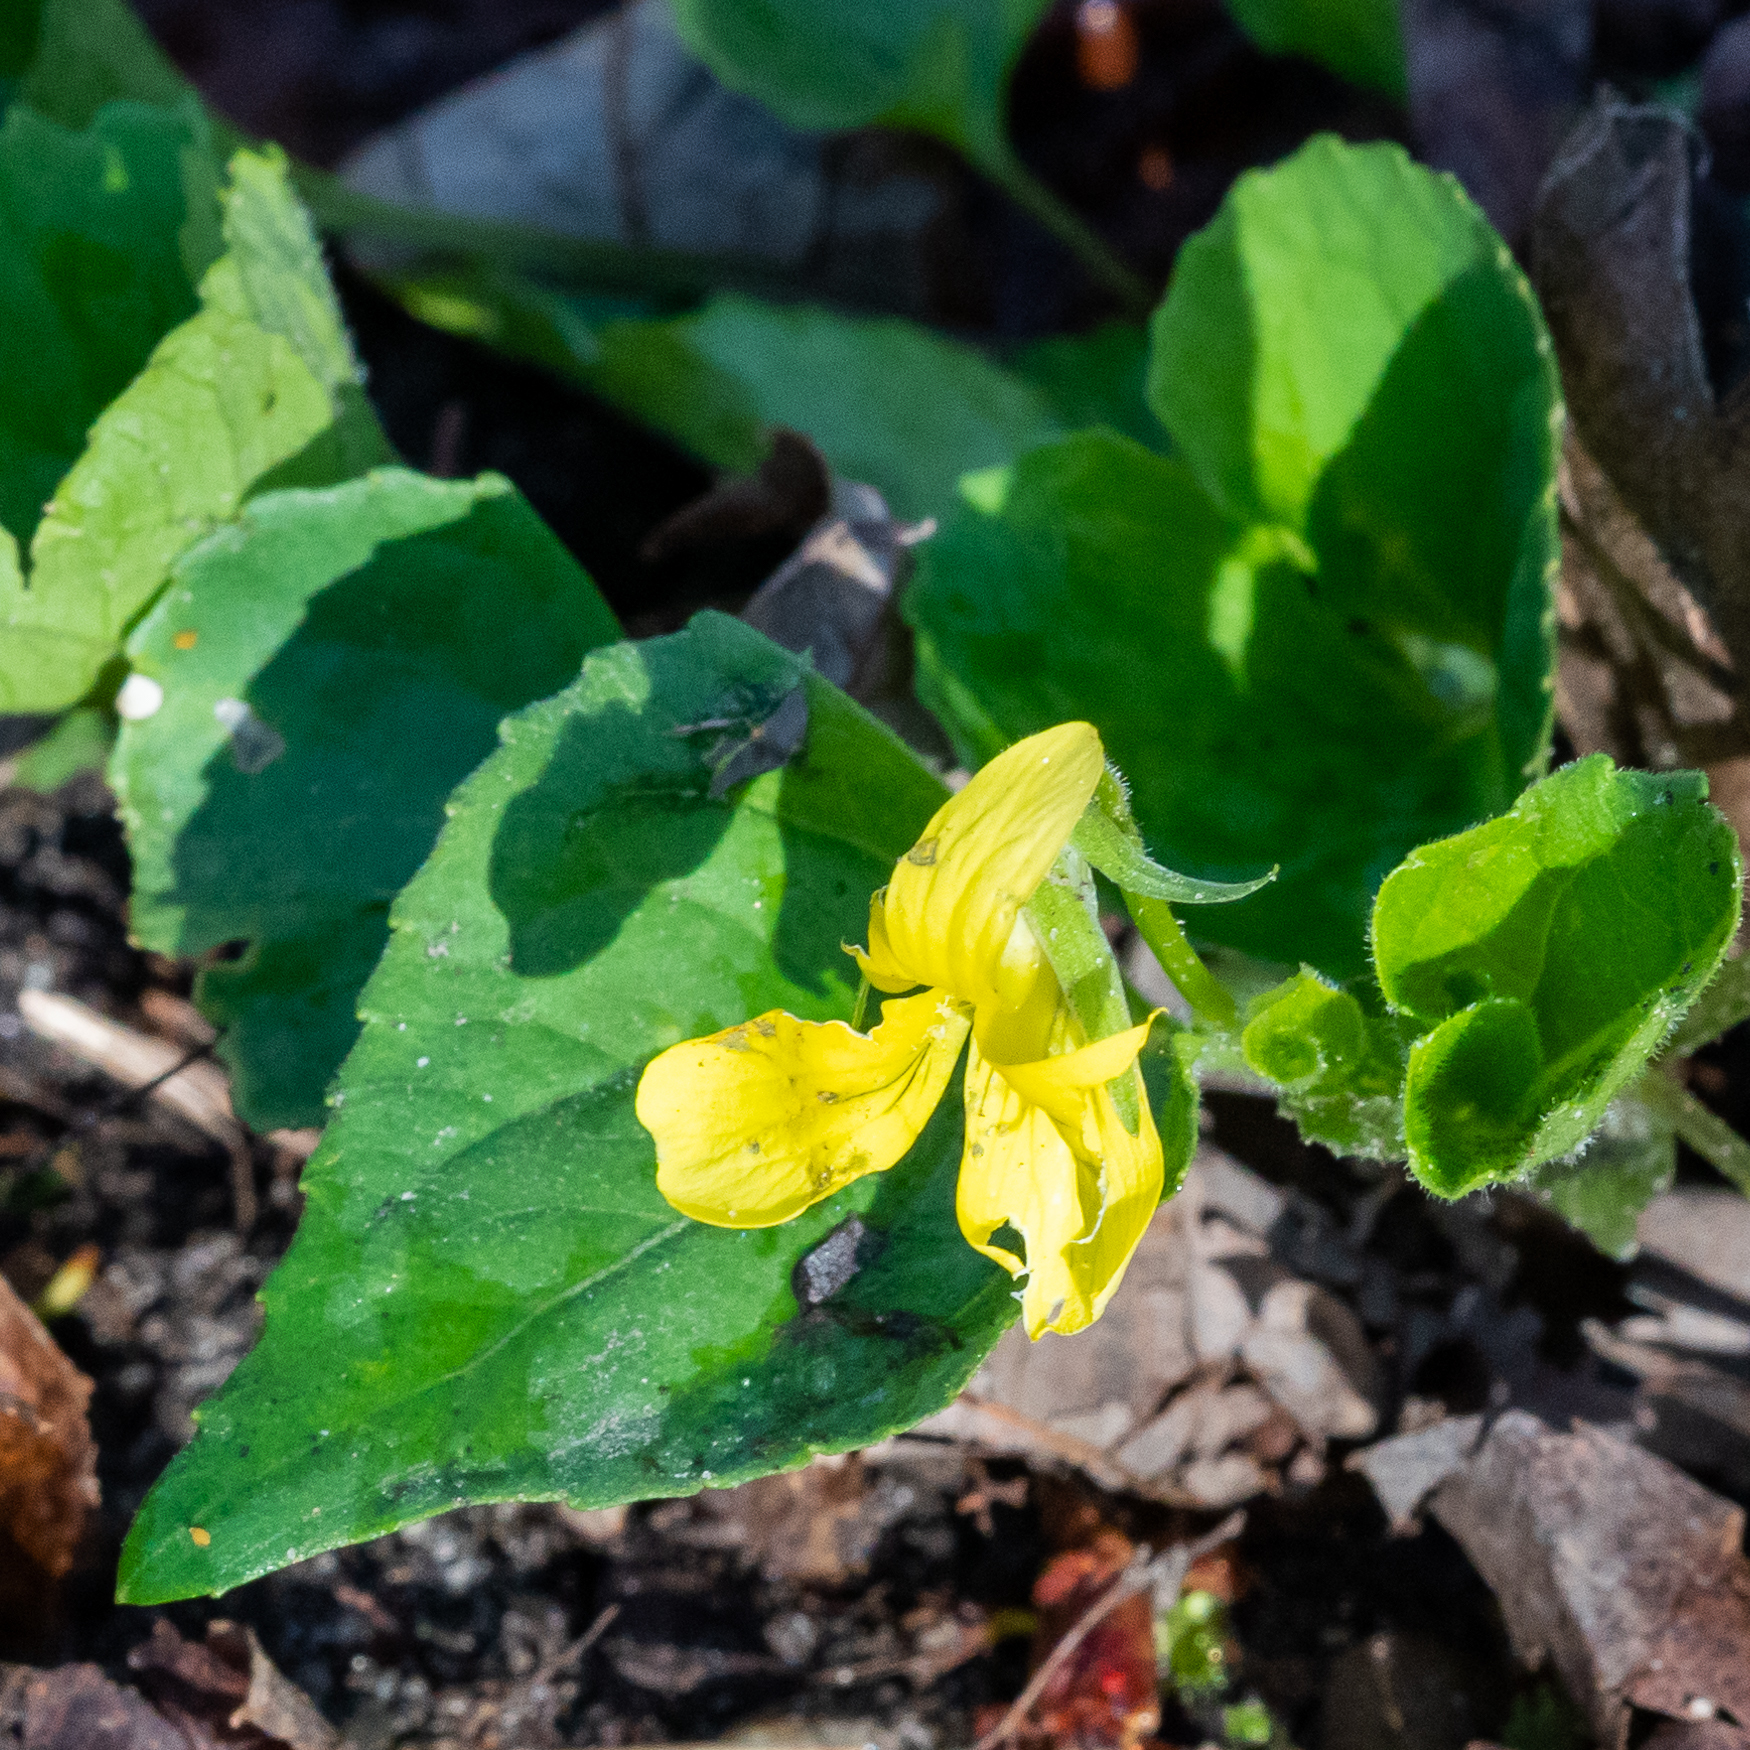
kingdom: Plantae
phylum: Tracheophyta
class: Magnoliopsida
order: Malpighiales
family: Violaceae
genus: Viola
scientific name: Viola eriocarpa
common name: Smooth yellow violet
